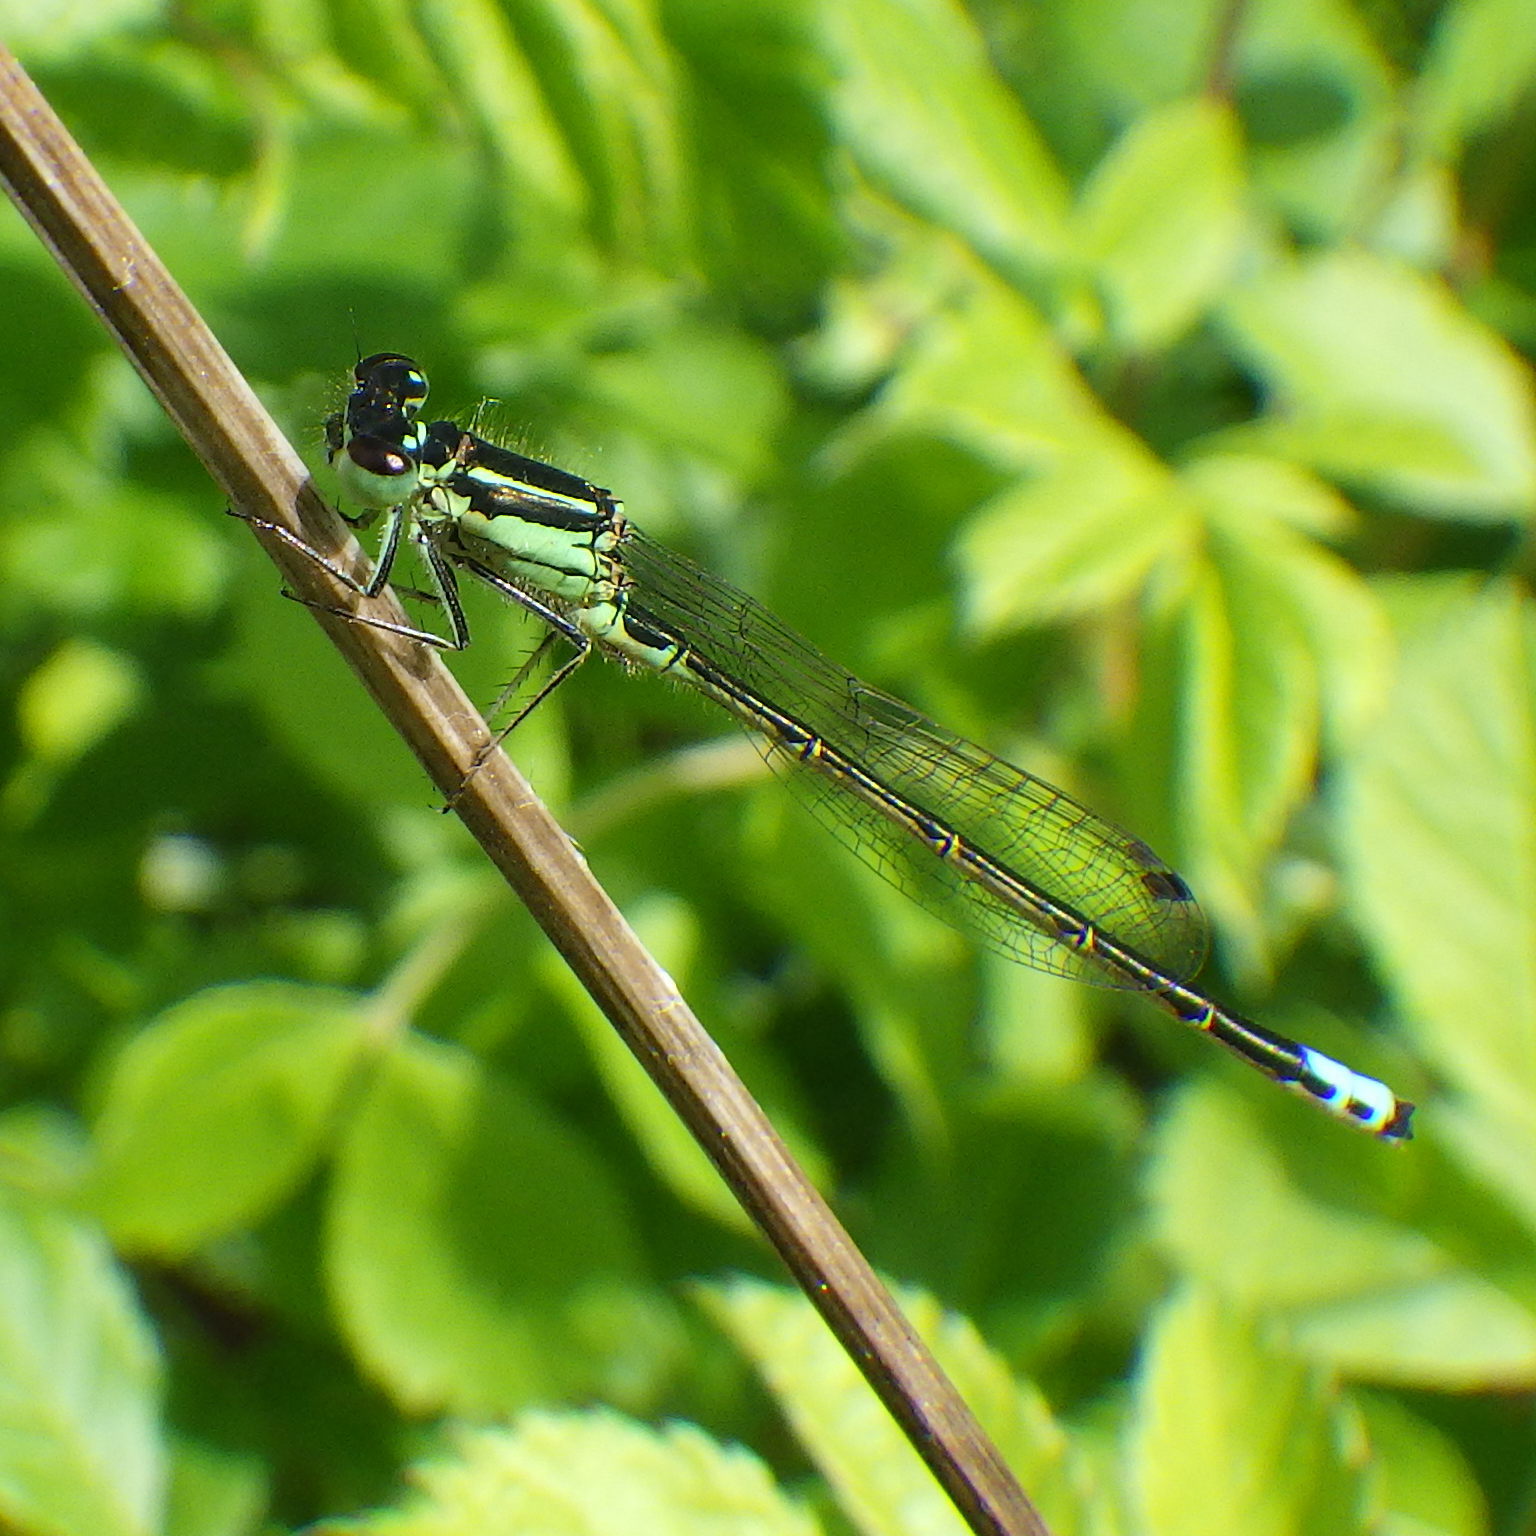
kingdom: Animalia
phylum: Arthropoda
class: Insecta
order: Odonata
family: Coenagrionidae
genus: Ischnura
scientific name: Ischnura verticalis
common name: Eastern forktail
